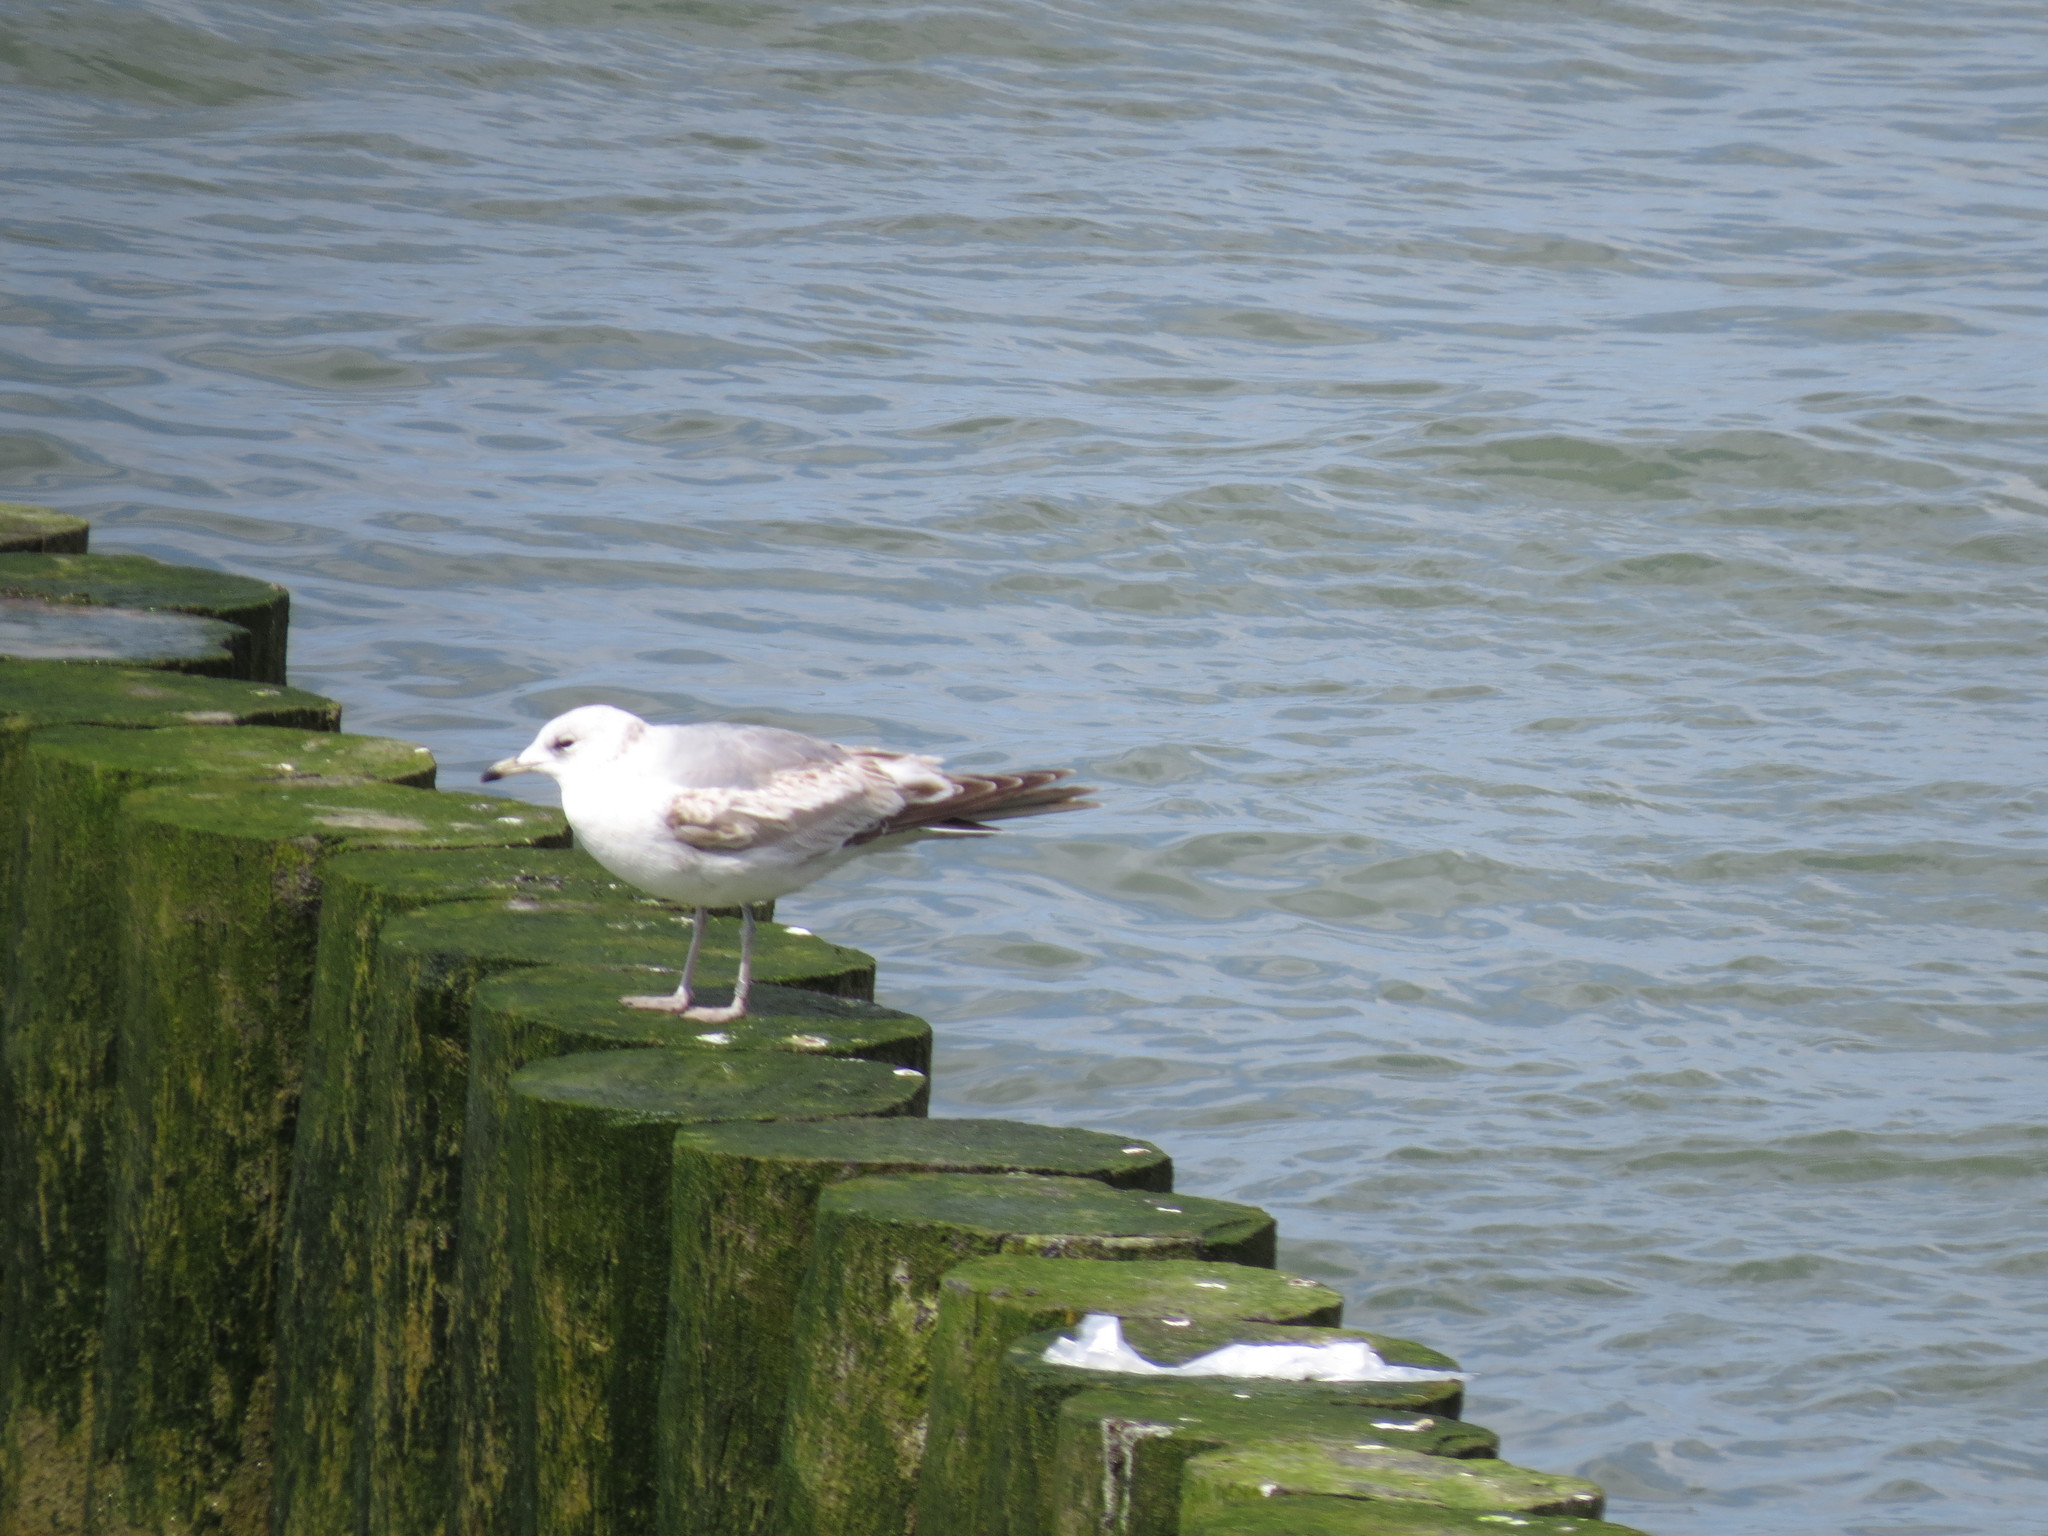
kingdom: Animalia
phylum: Chordata
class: Aves
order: Charadriiformes
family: Laridae
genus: Larus
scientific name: Larus canus
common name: Mew gull
